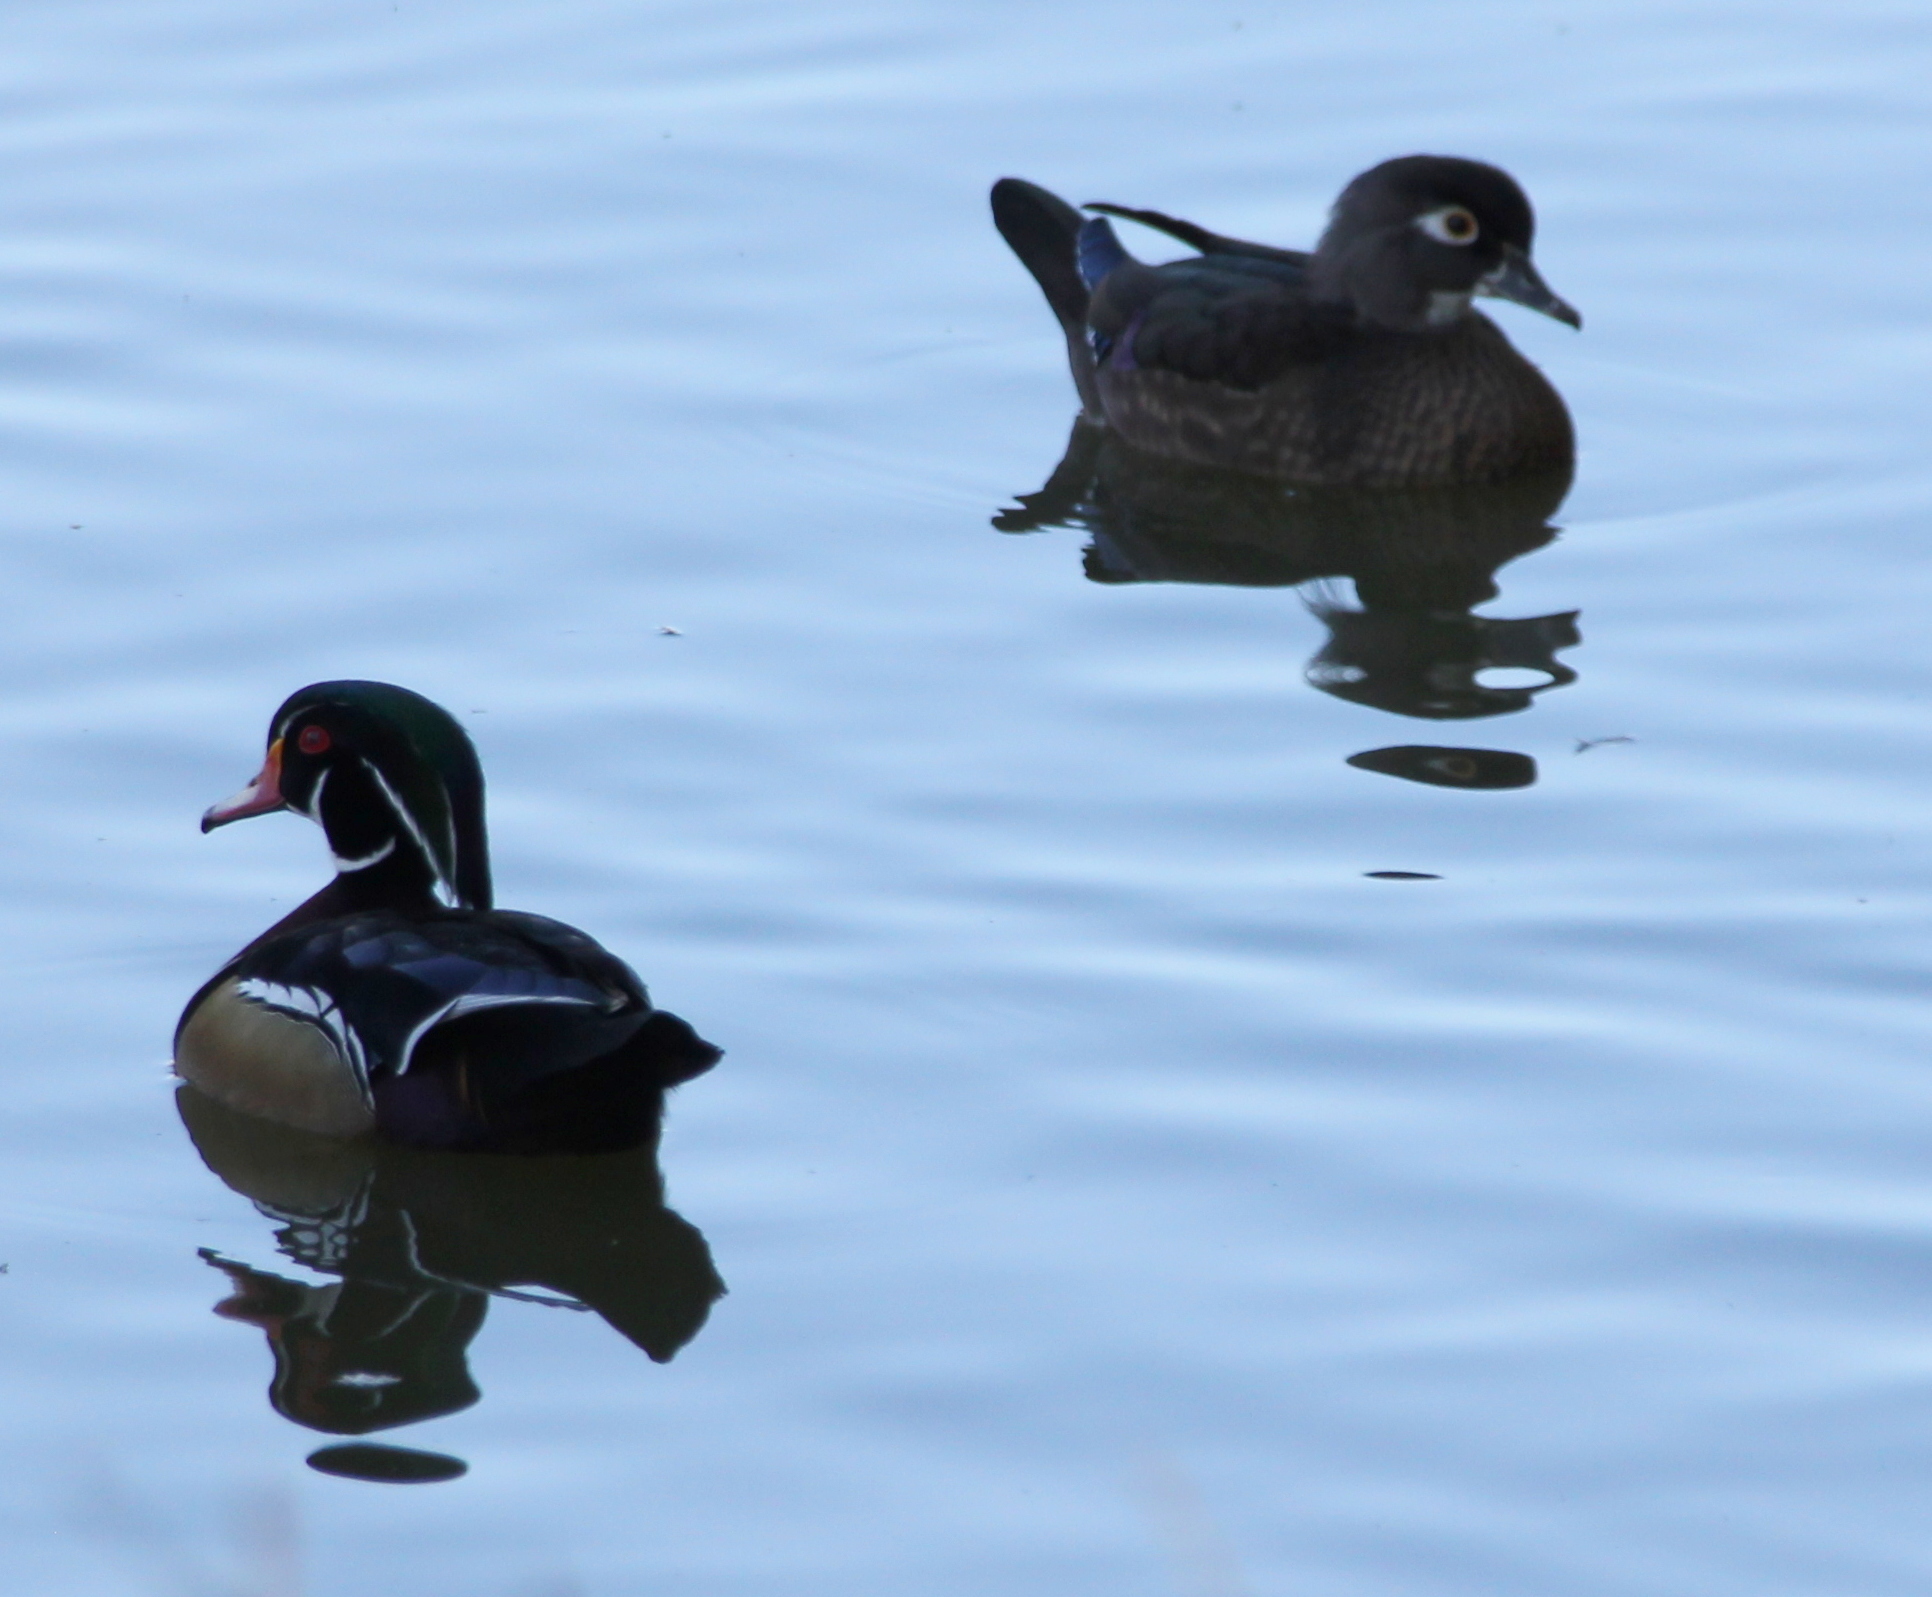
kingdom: Animalia
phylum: Chordata
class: Aves
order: Anseriformes
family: Anatidae
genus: Aix
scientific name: Aix sponsa
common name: Wood duck
